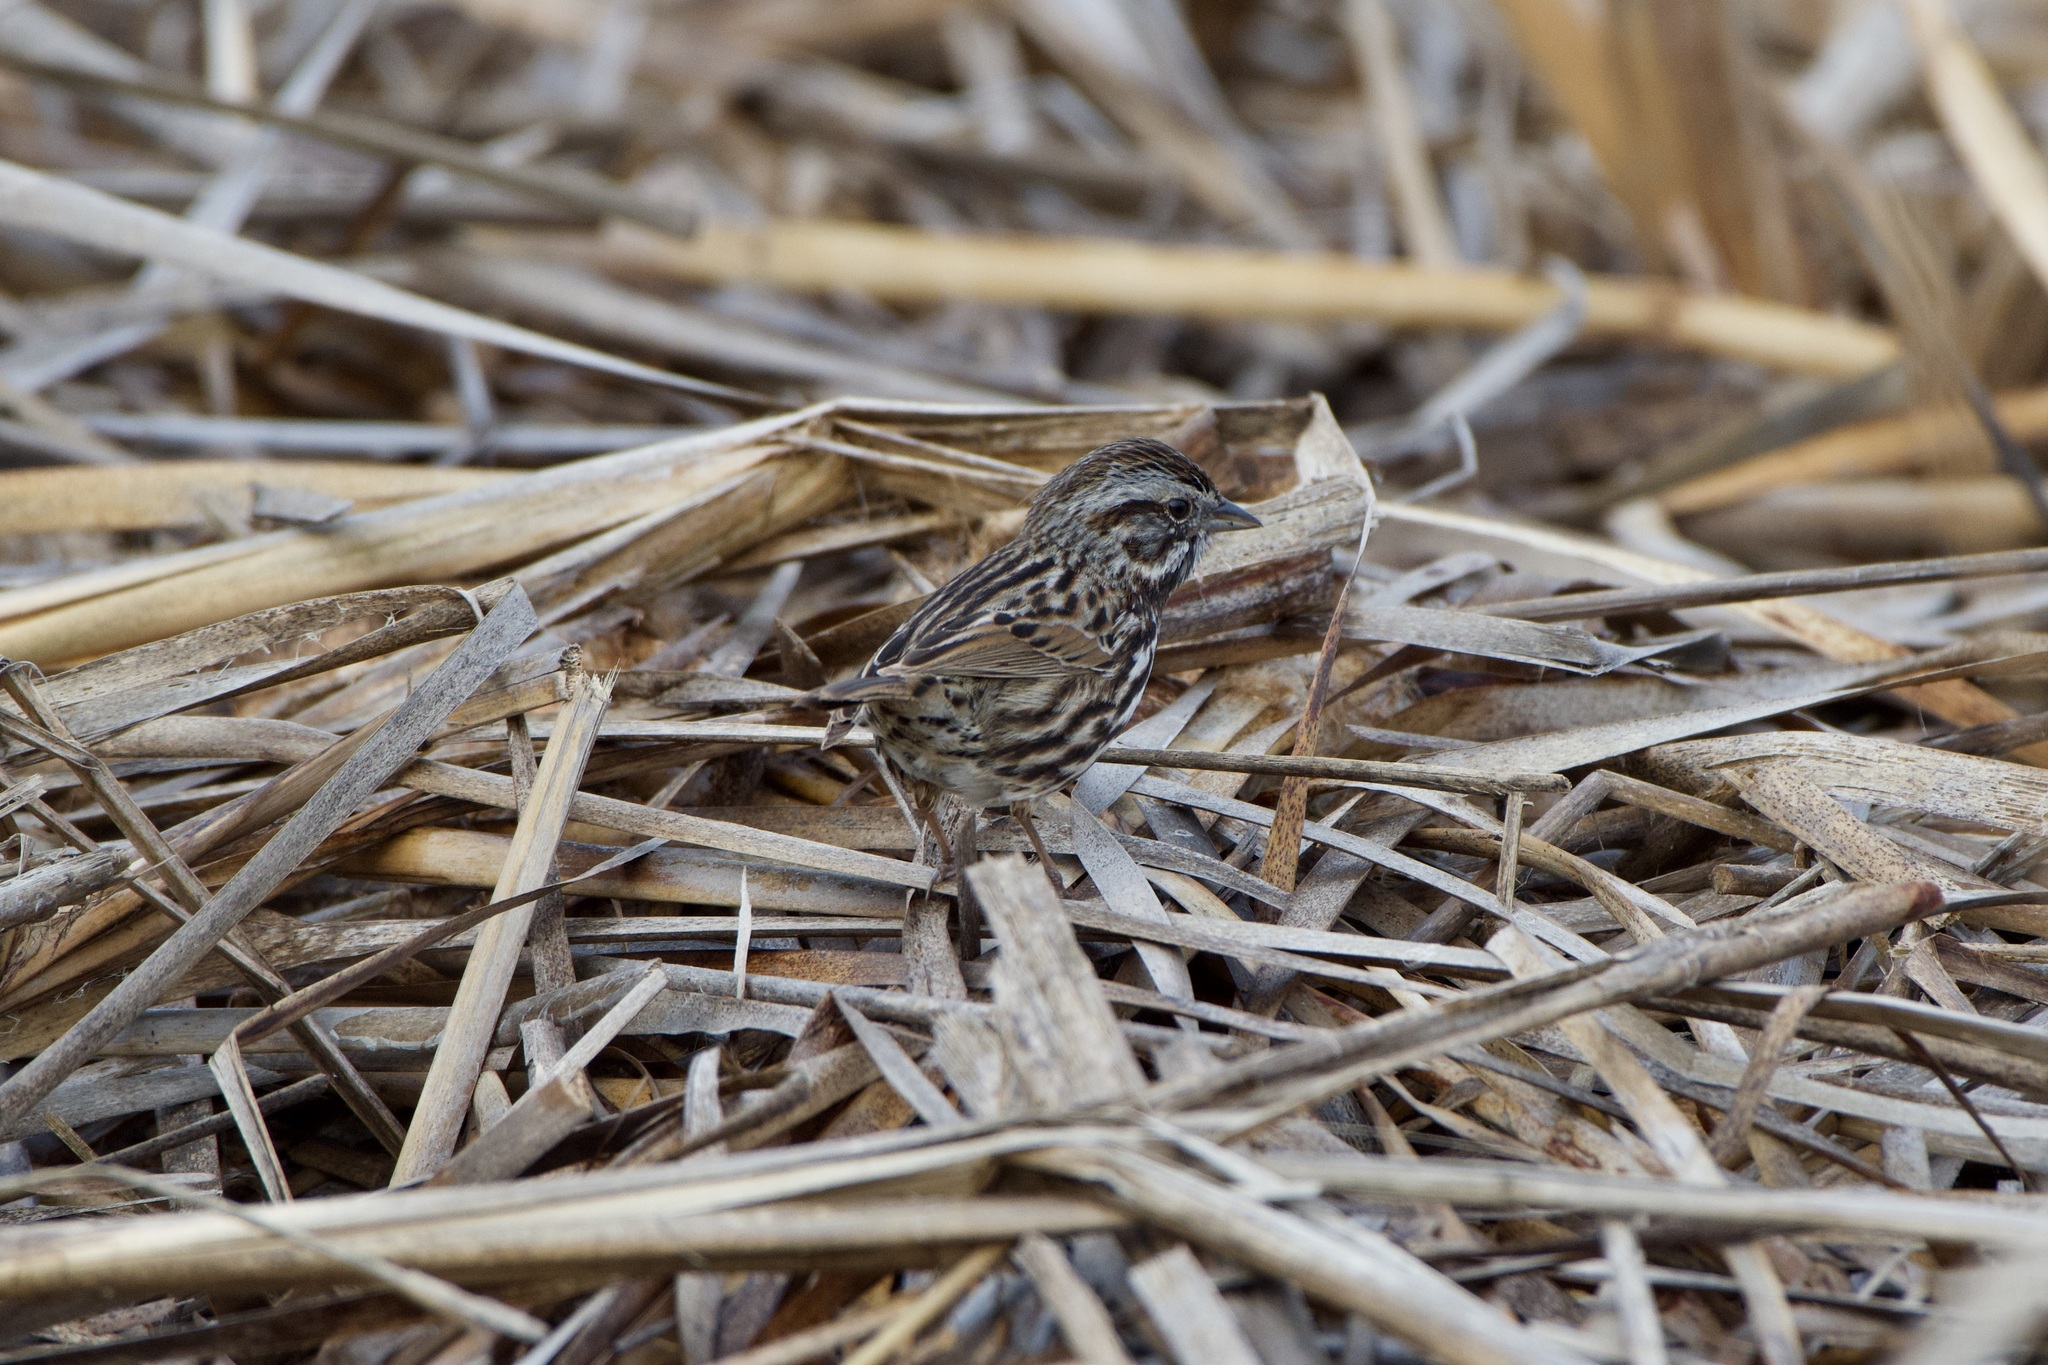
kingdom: Animalia
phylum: Chordata
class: Aves
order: Passeriformes
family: Passerellidae
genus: Melospiza
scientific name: Melospiza melodia
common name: Song sparrow
